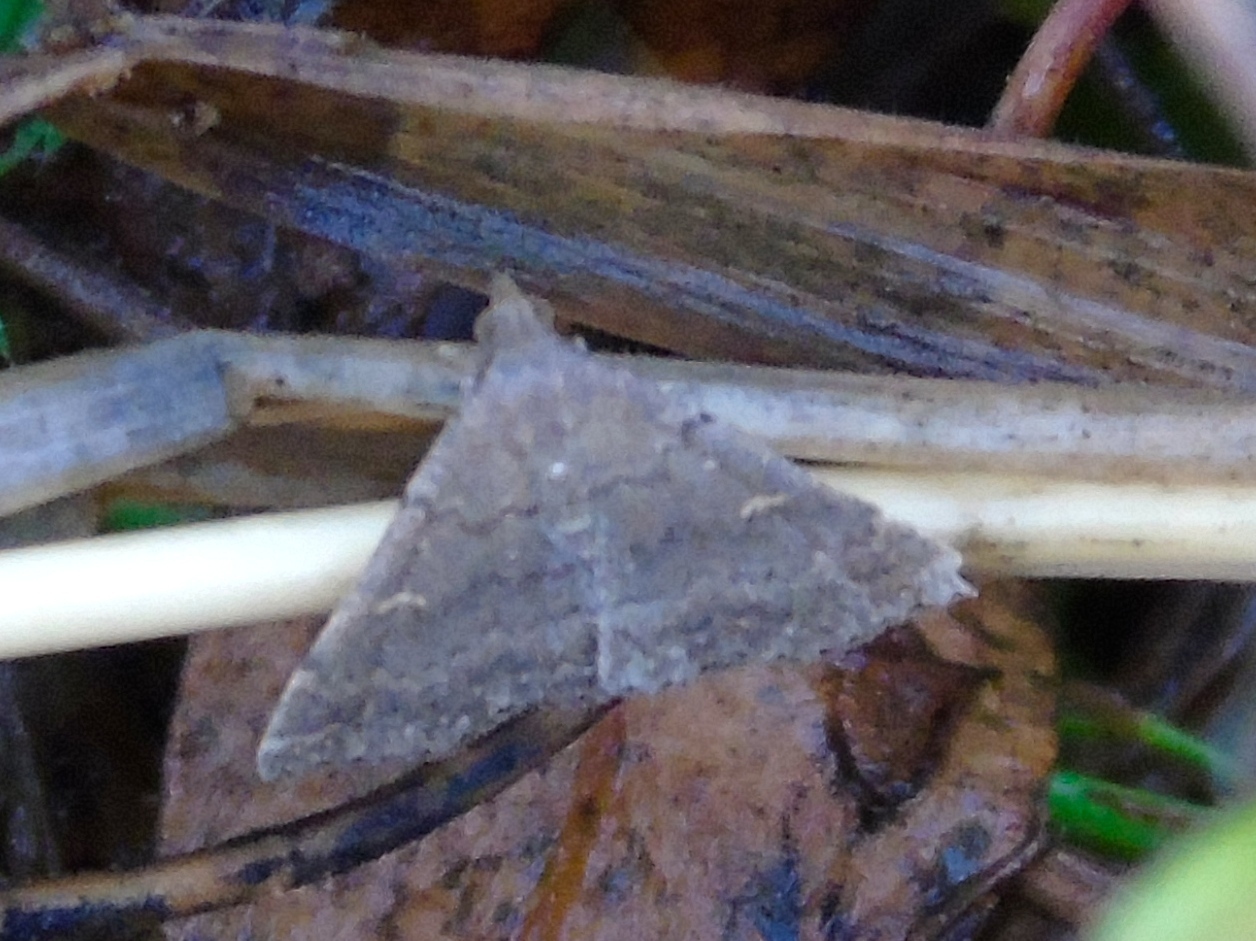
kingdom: Animalia
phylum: Arthropoda
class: Insecta
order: Lepidoptera
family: Erebidae
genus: Tetanolita
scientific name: Tetanolita
